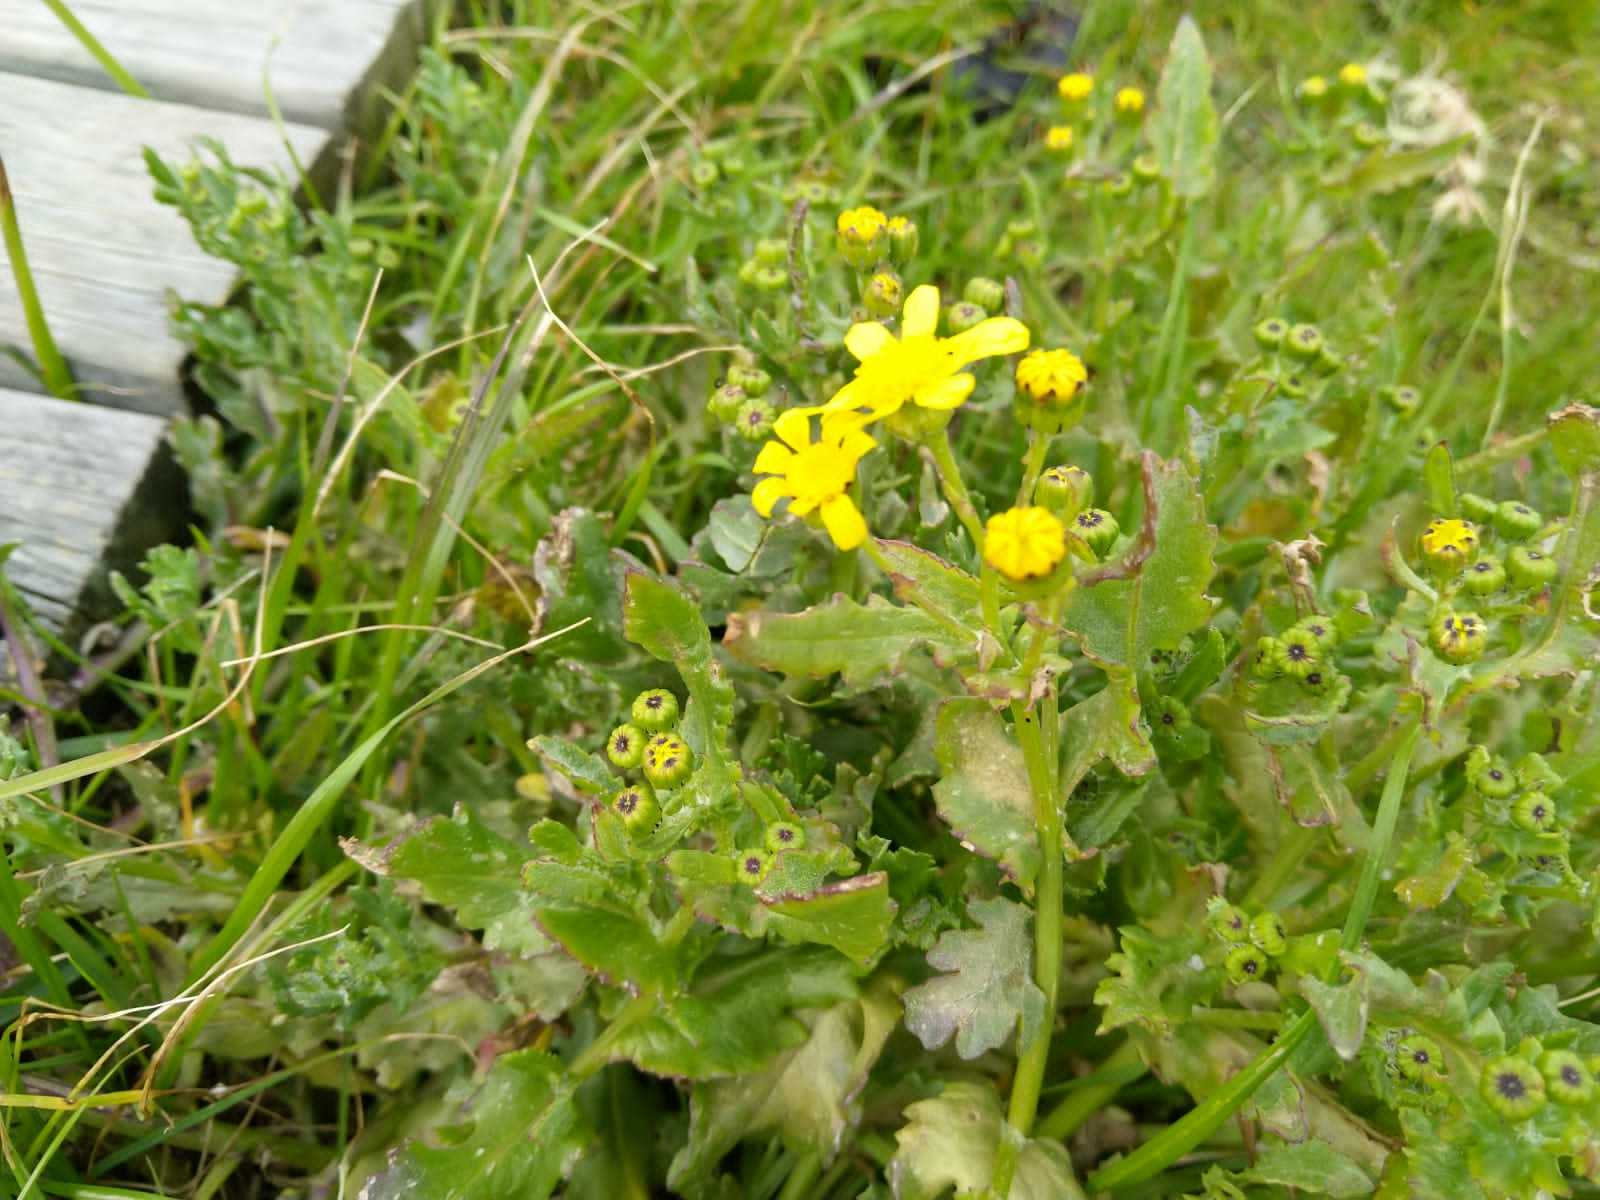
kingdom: Plantae
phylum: Tracheophyta
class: Magnoliopsida
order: Asterales
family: Asteraceae
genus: Senecio
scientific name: Senecio maritimus
